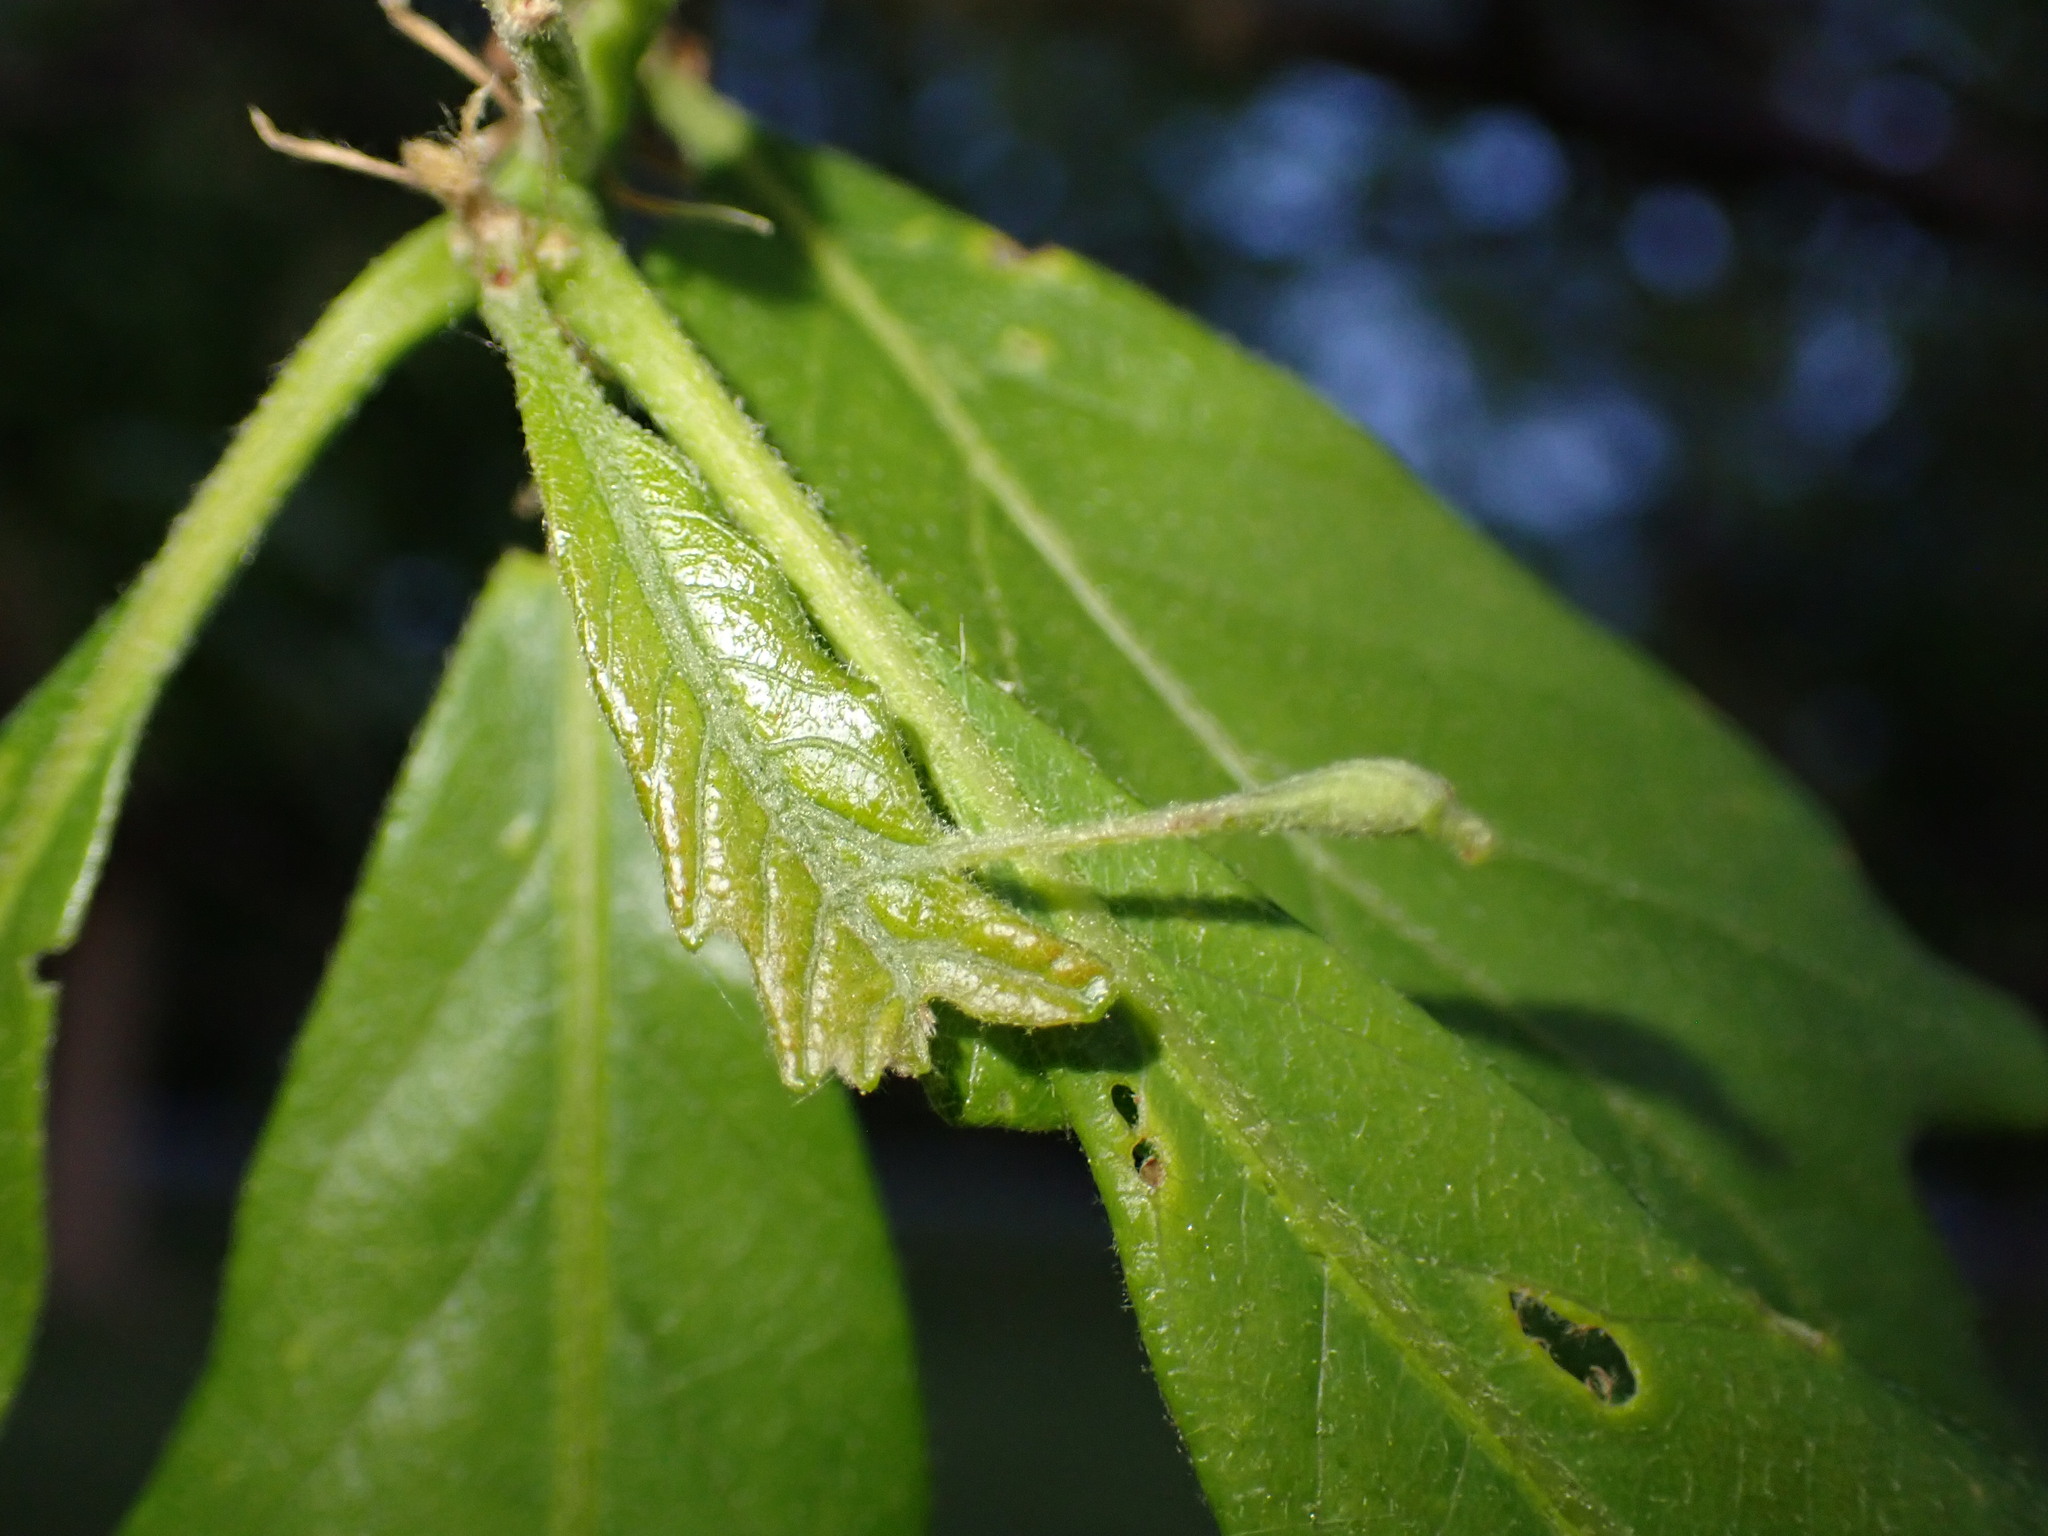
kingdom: Animalia
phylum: Arthropoda
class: Insecta
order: Hymenoptera
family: Cynipidae
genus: Andricus
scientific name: Andricus
